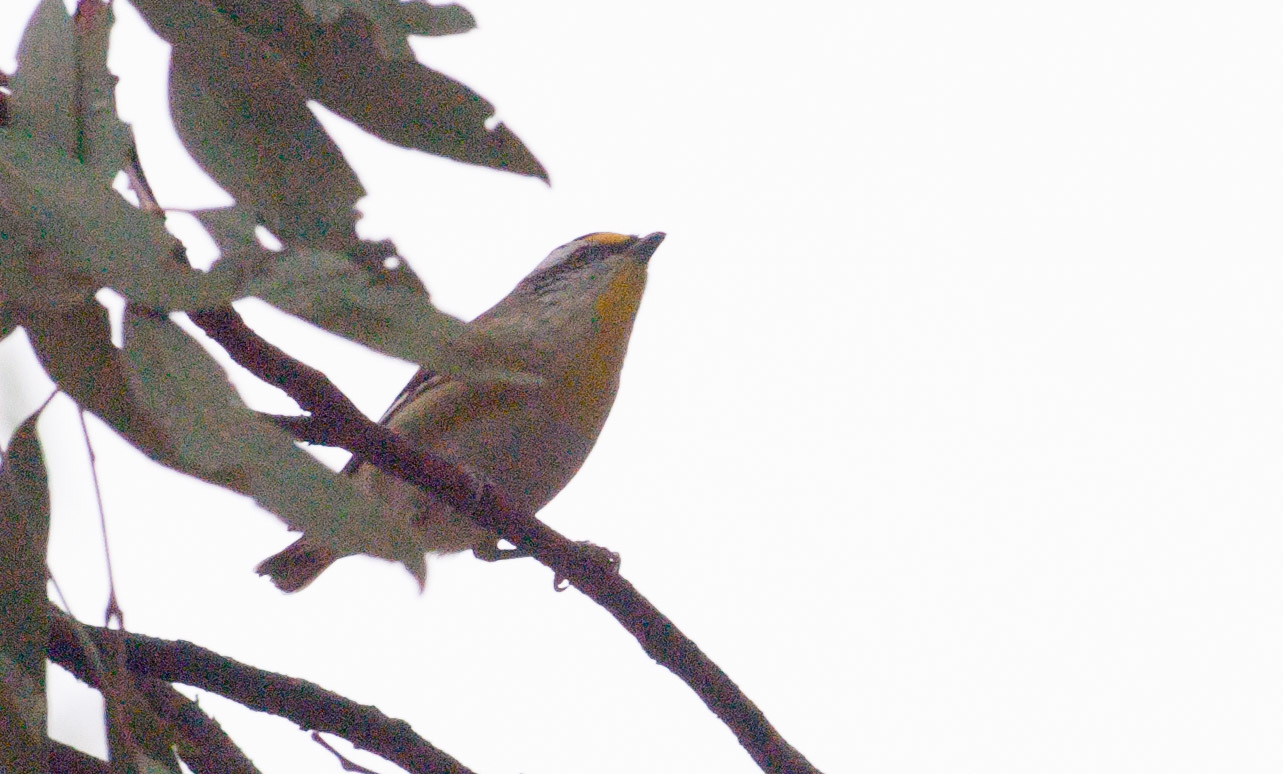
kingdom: Animalia
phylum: Chordata
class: Aves
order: Passeriformes
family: Pardalotidae
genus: Pardalotus
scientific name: Pardalotus striatus
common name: Striated pardalote
